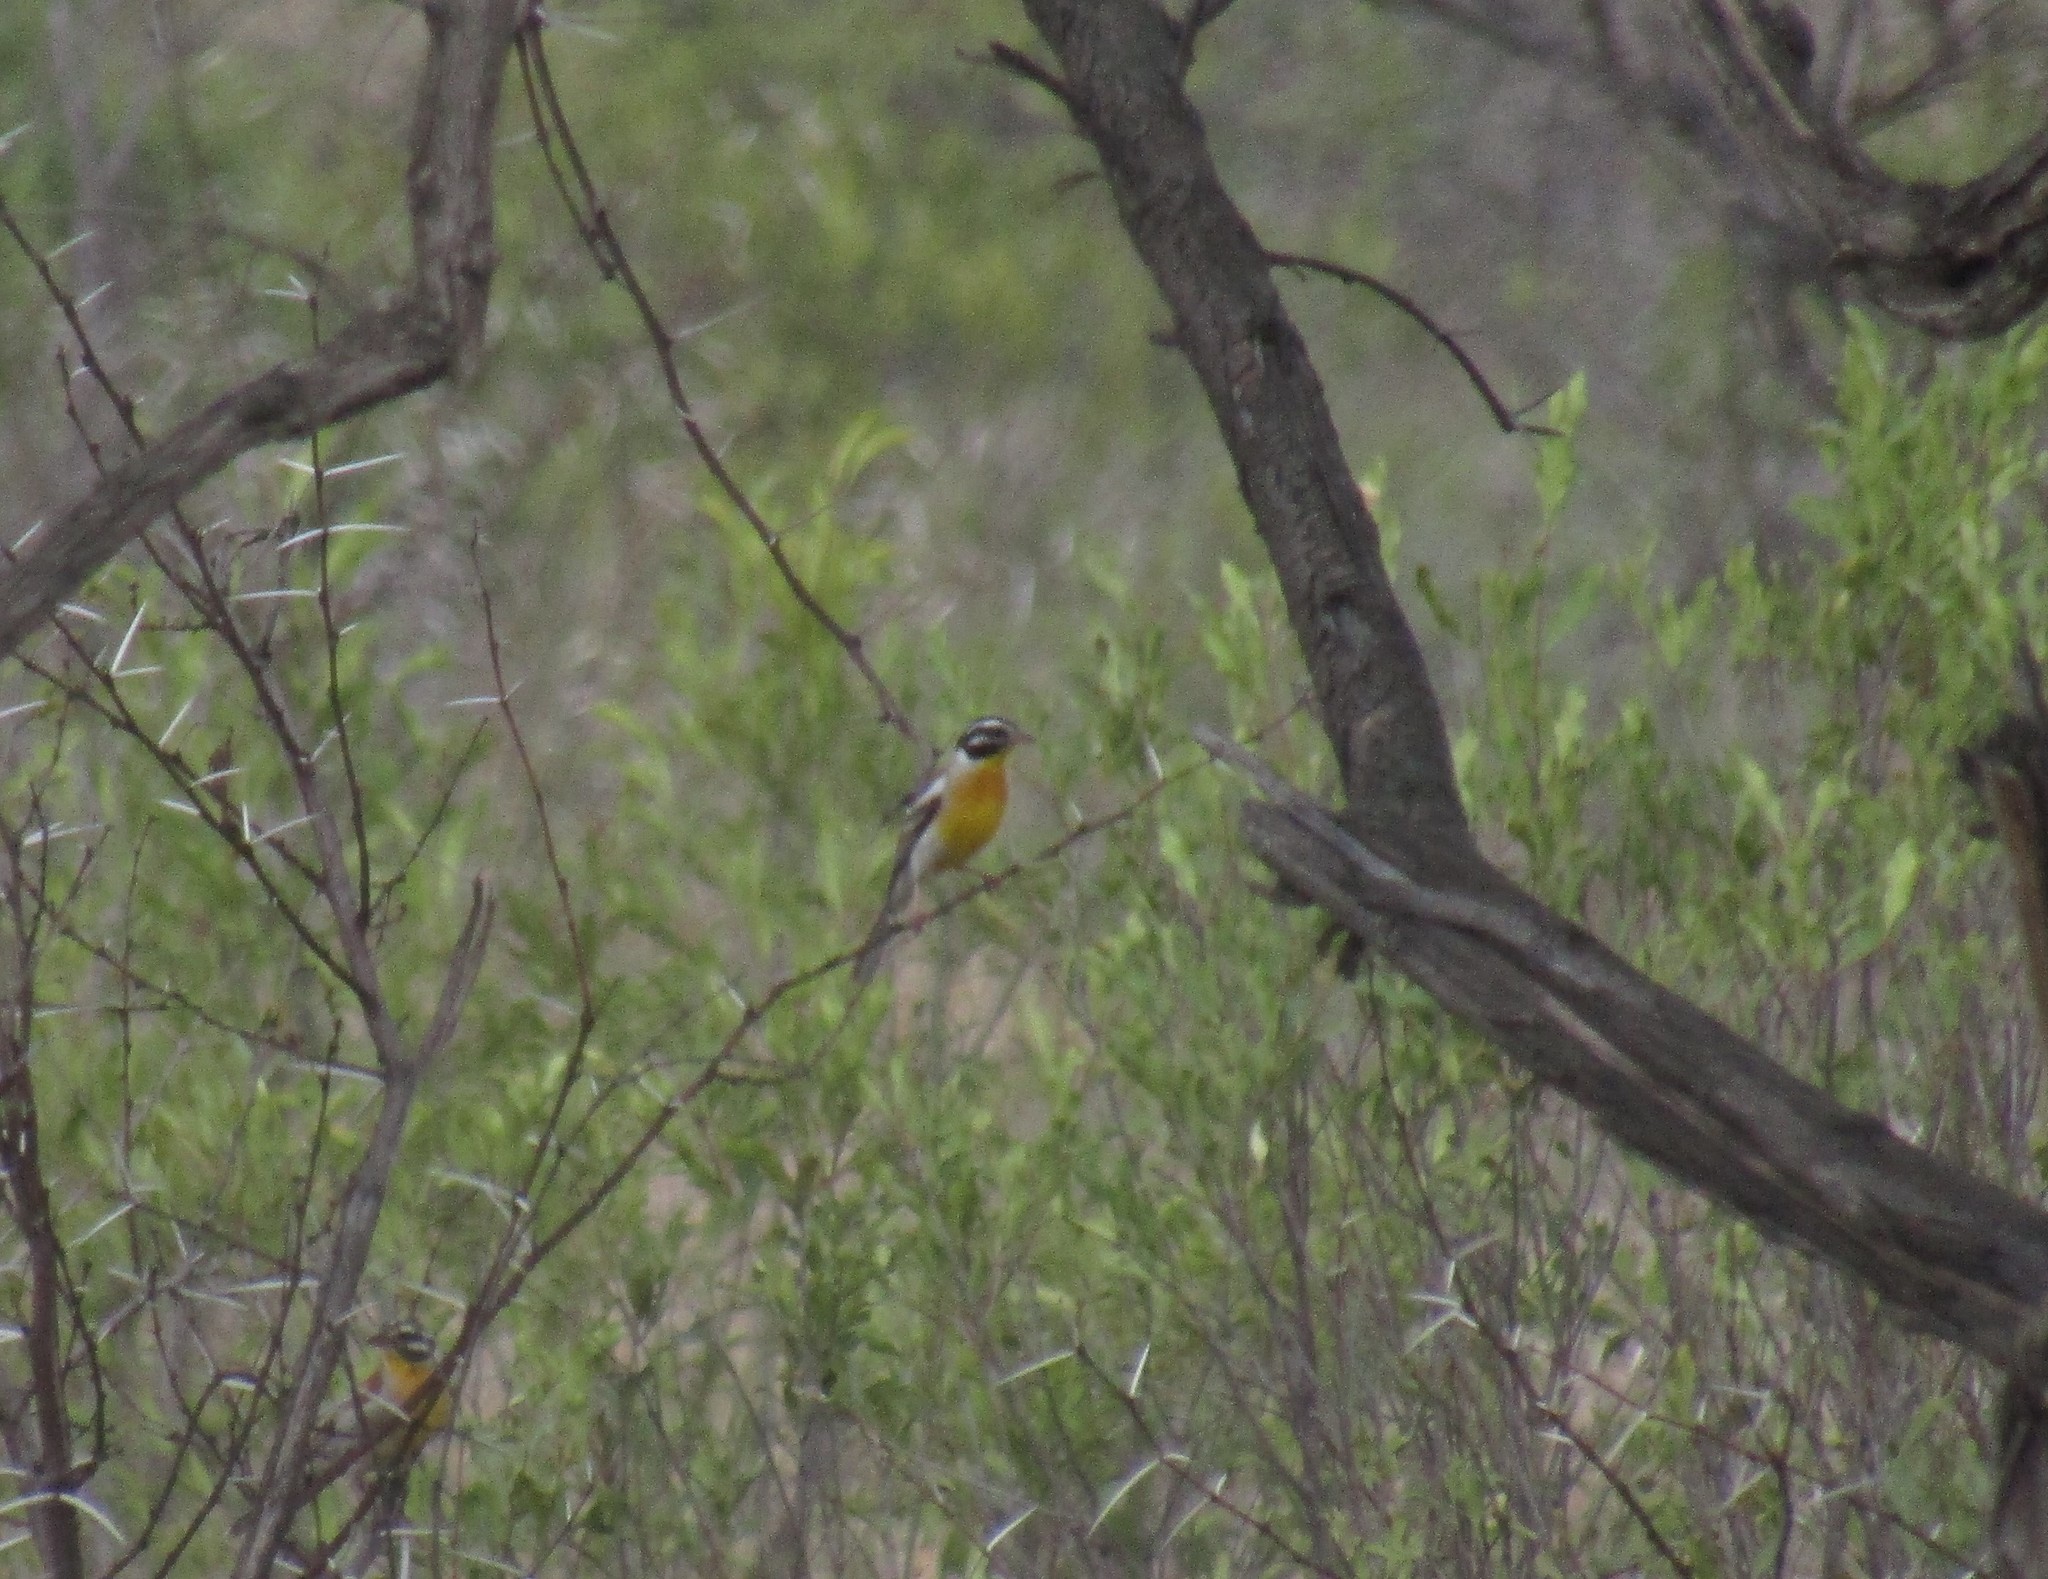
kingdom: Animalia
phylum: Chordata
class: Aves
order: Passeriformes
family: Emberizidae
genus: Emberiza
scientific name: Emberiza flaviventris
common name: Golden-breasted bunting
